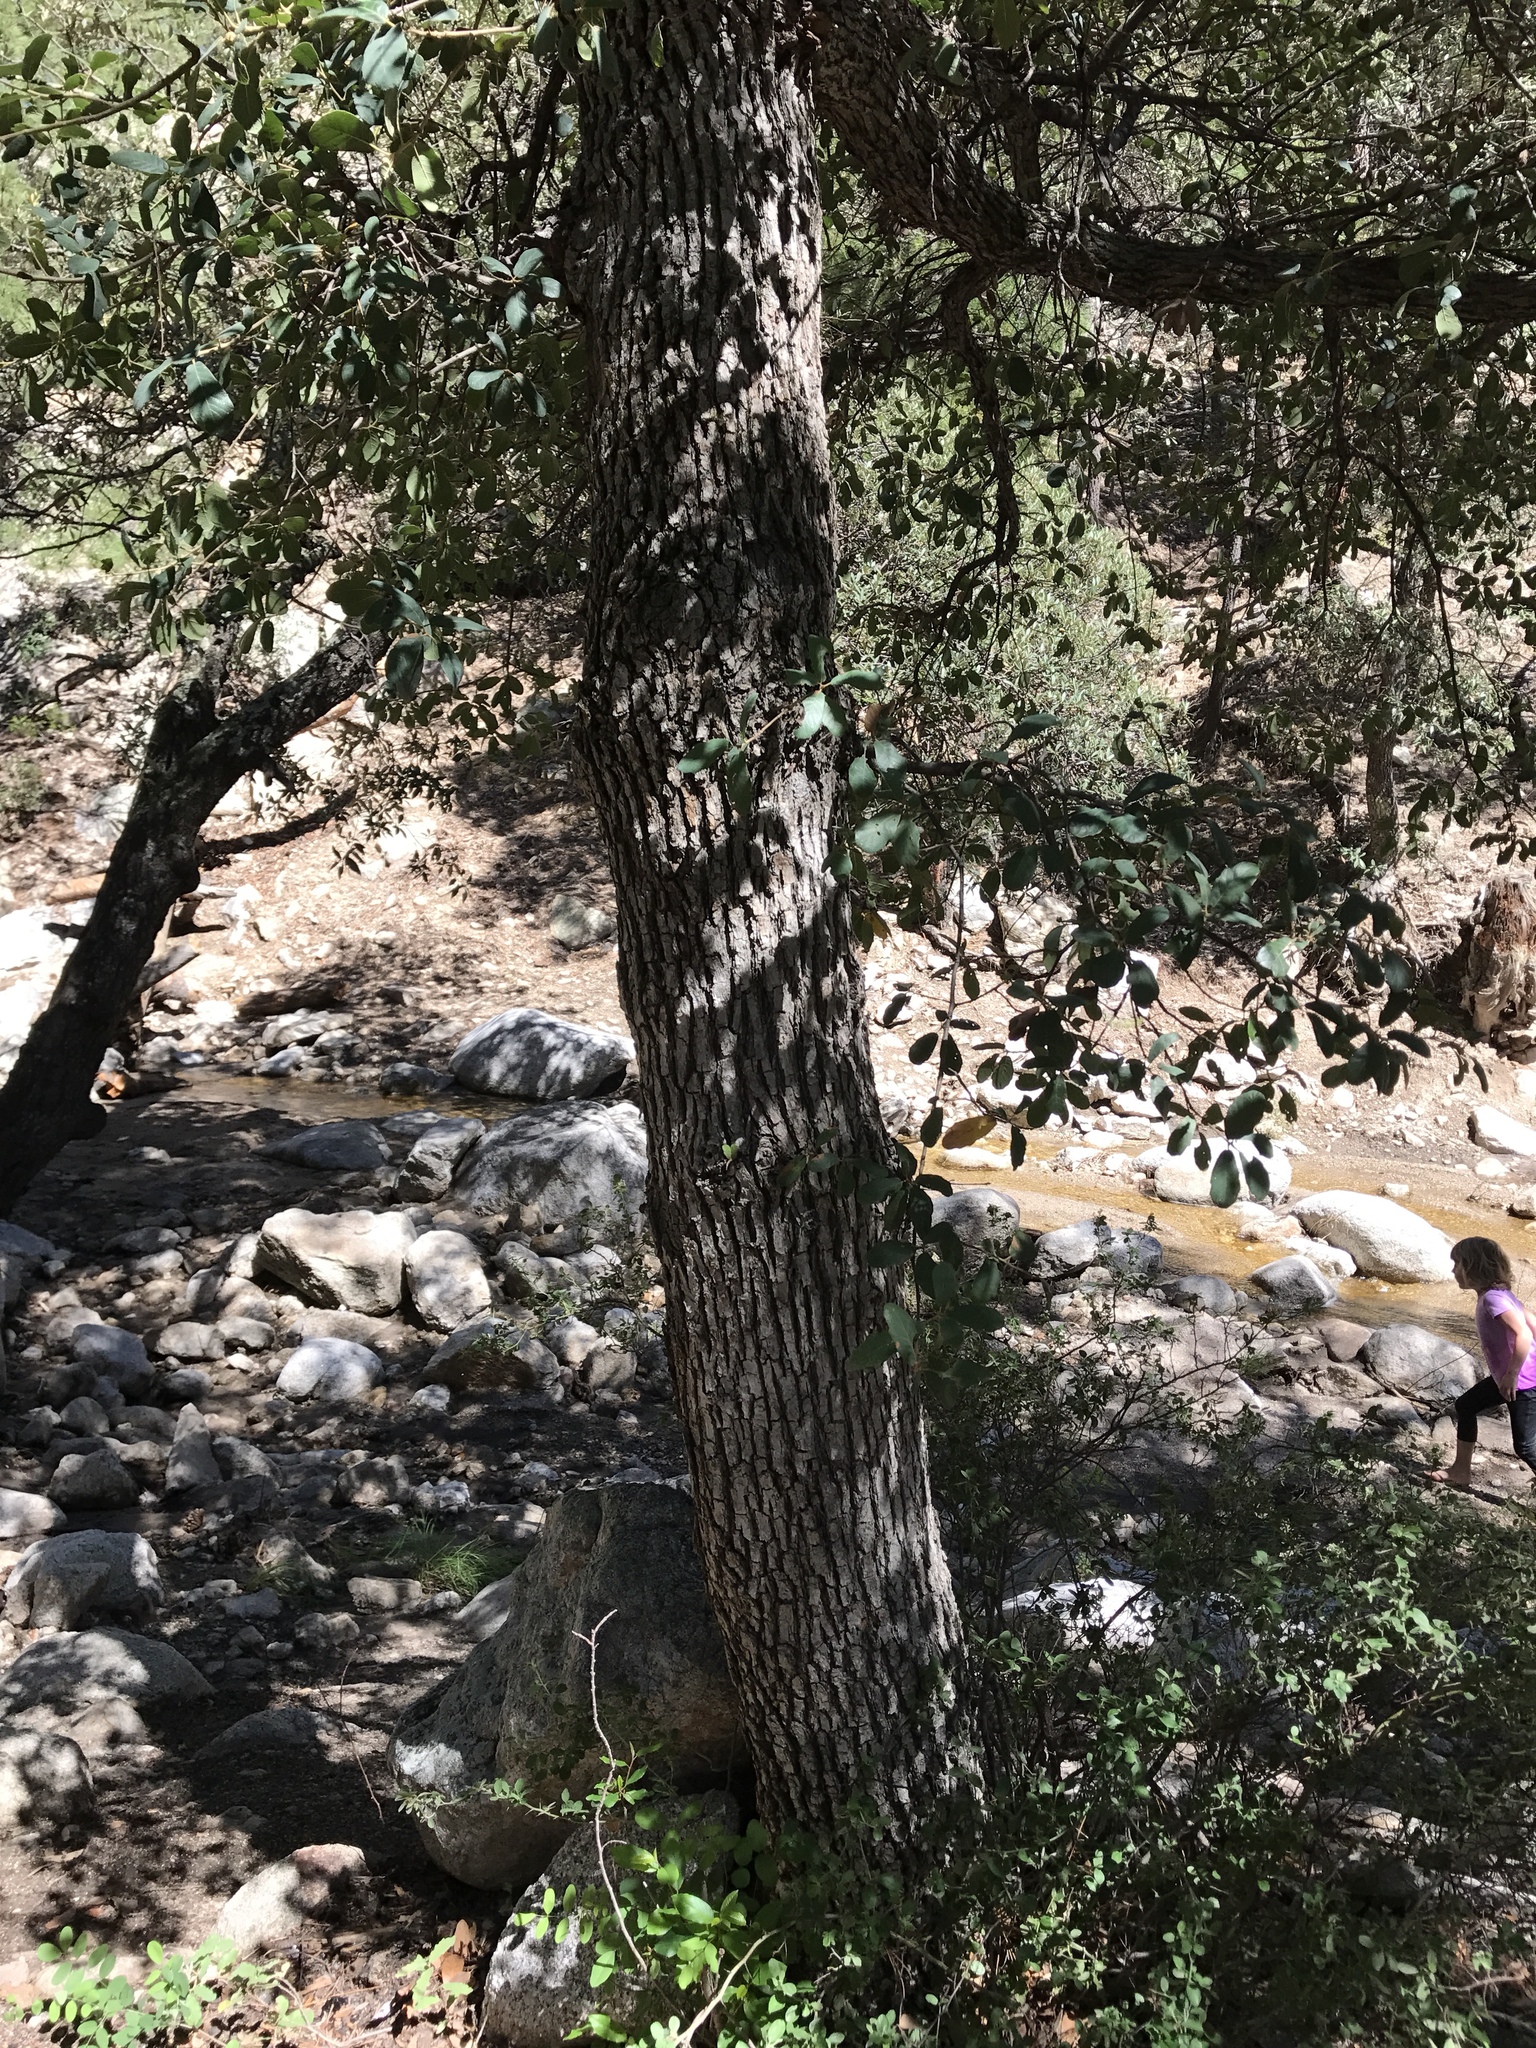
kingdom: Plantae
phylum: Tracheophyta
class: Magnoliopsida
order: Fagales
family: Fagaceae
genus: Quercus
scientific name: Quercus arizonica
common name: Arizona white oak
